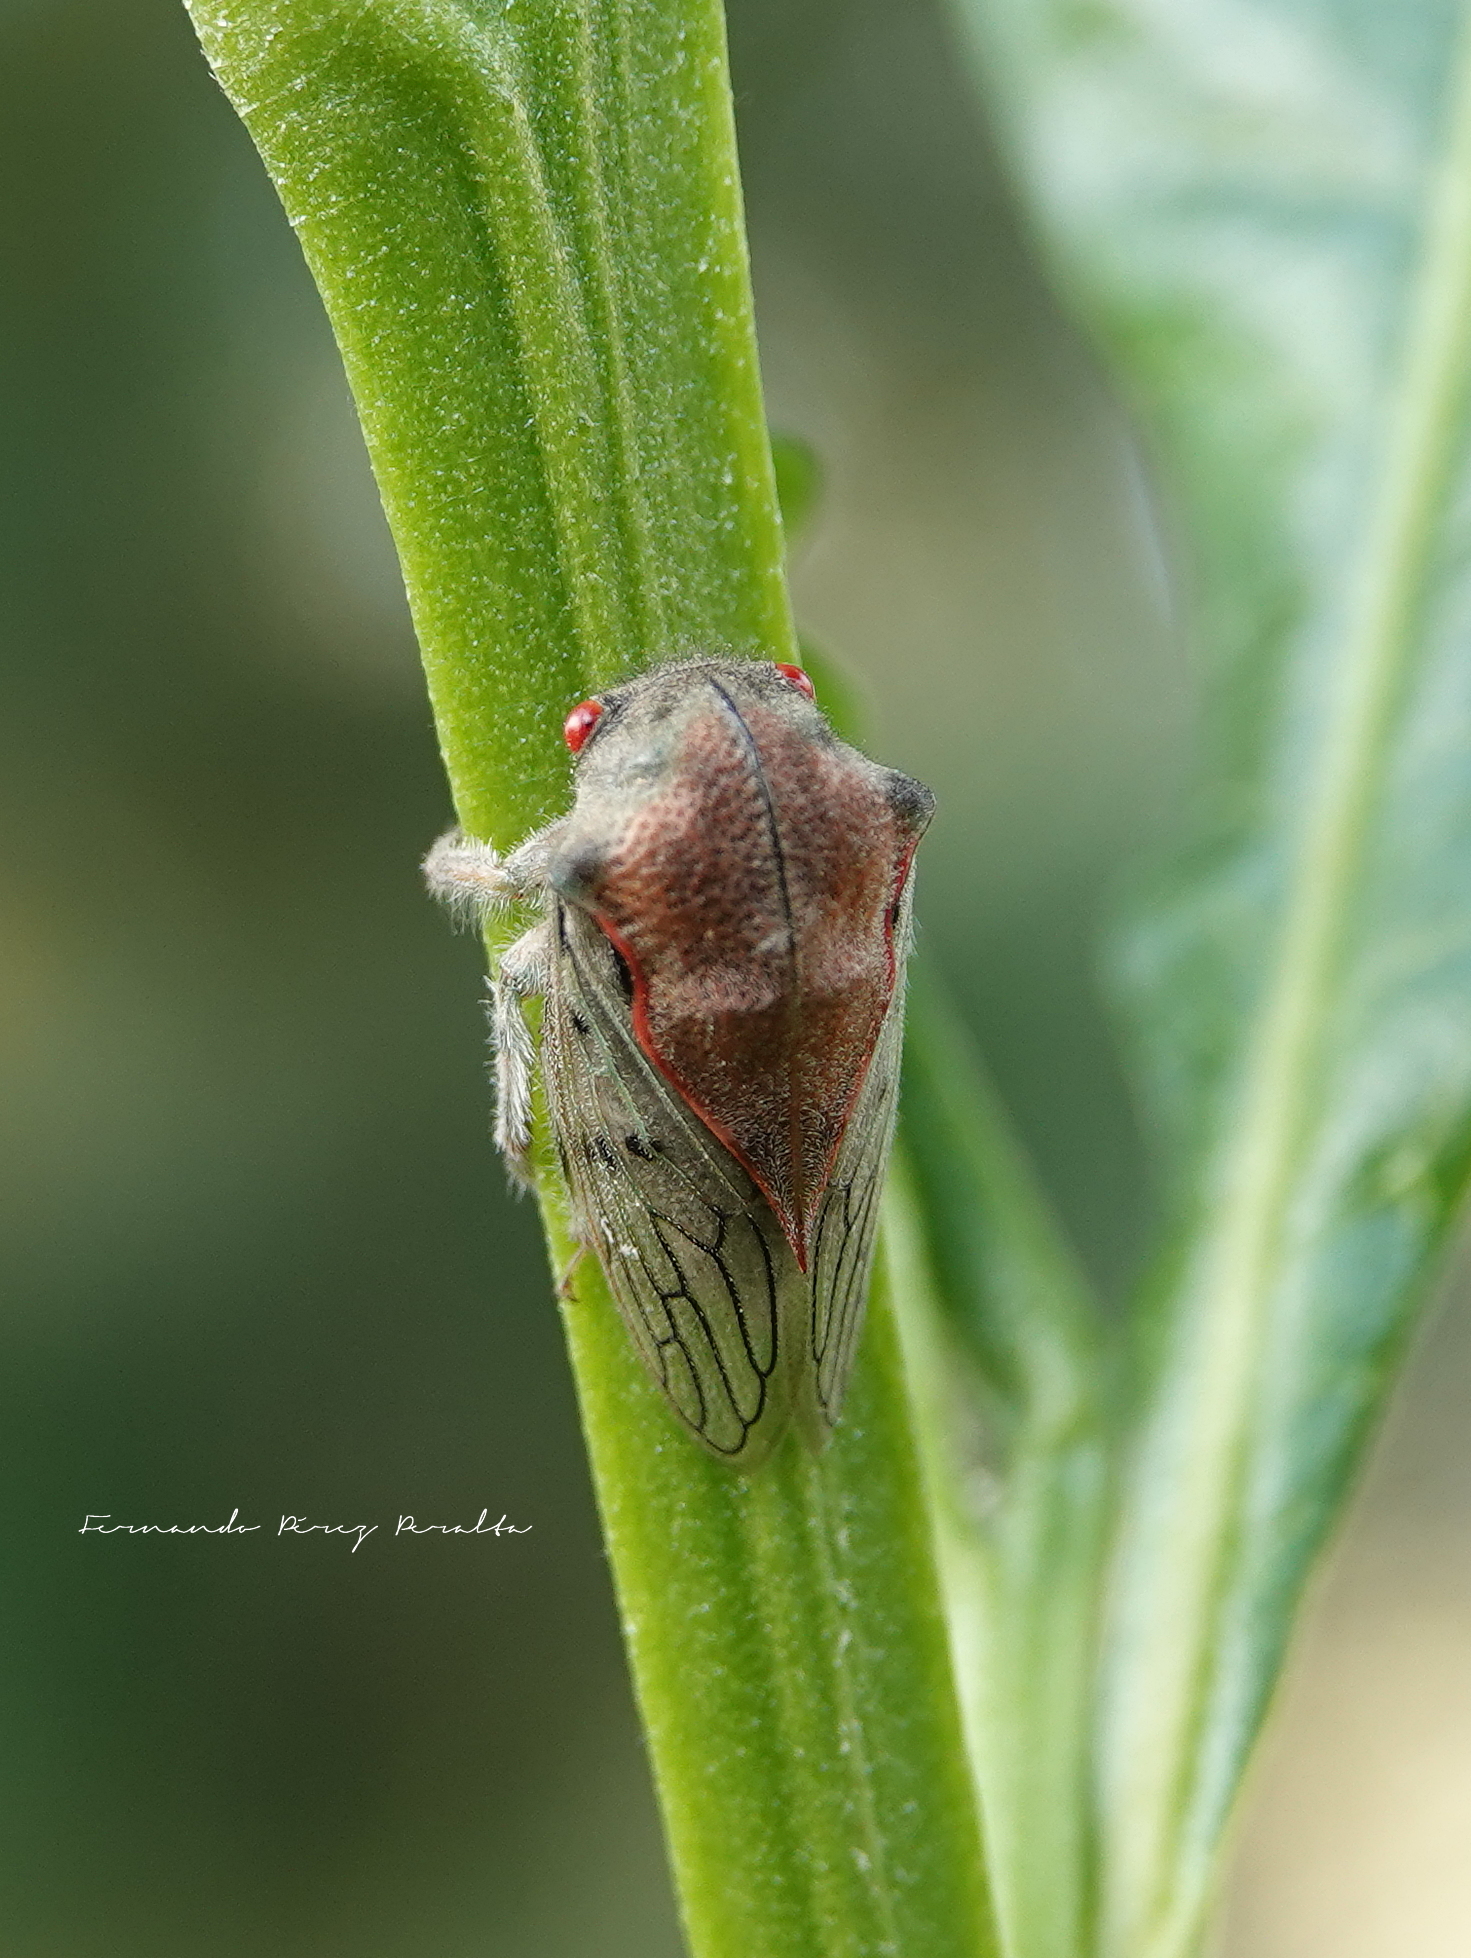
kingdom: Animalia
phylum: Arthropoda
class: Insecta
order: Hemiptera
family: Membracidae
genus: Metcalfiella
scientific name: Metcalfiella monograma
